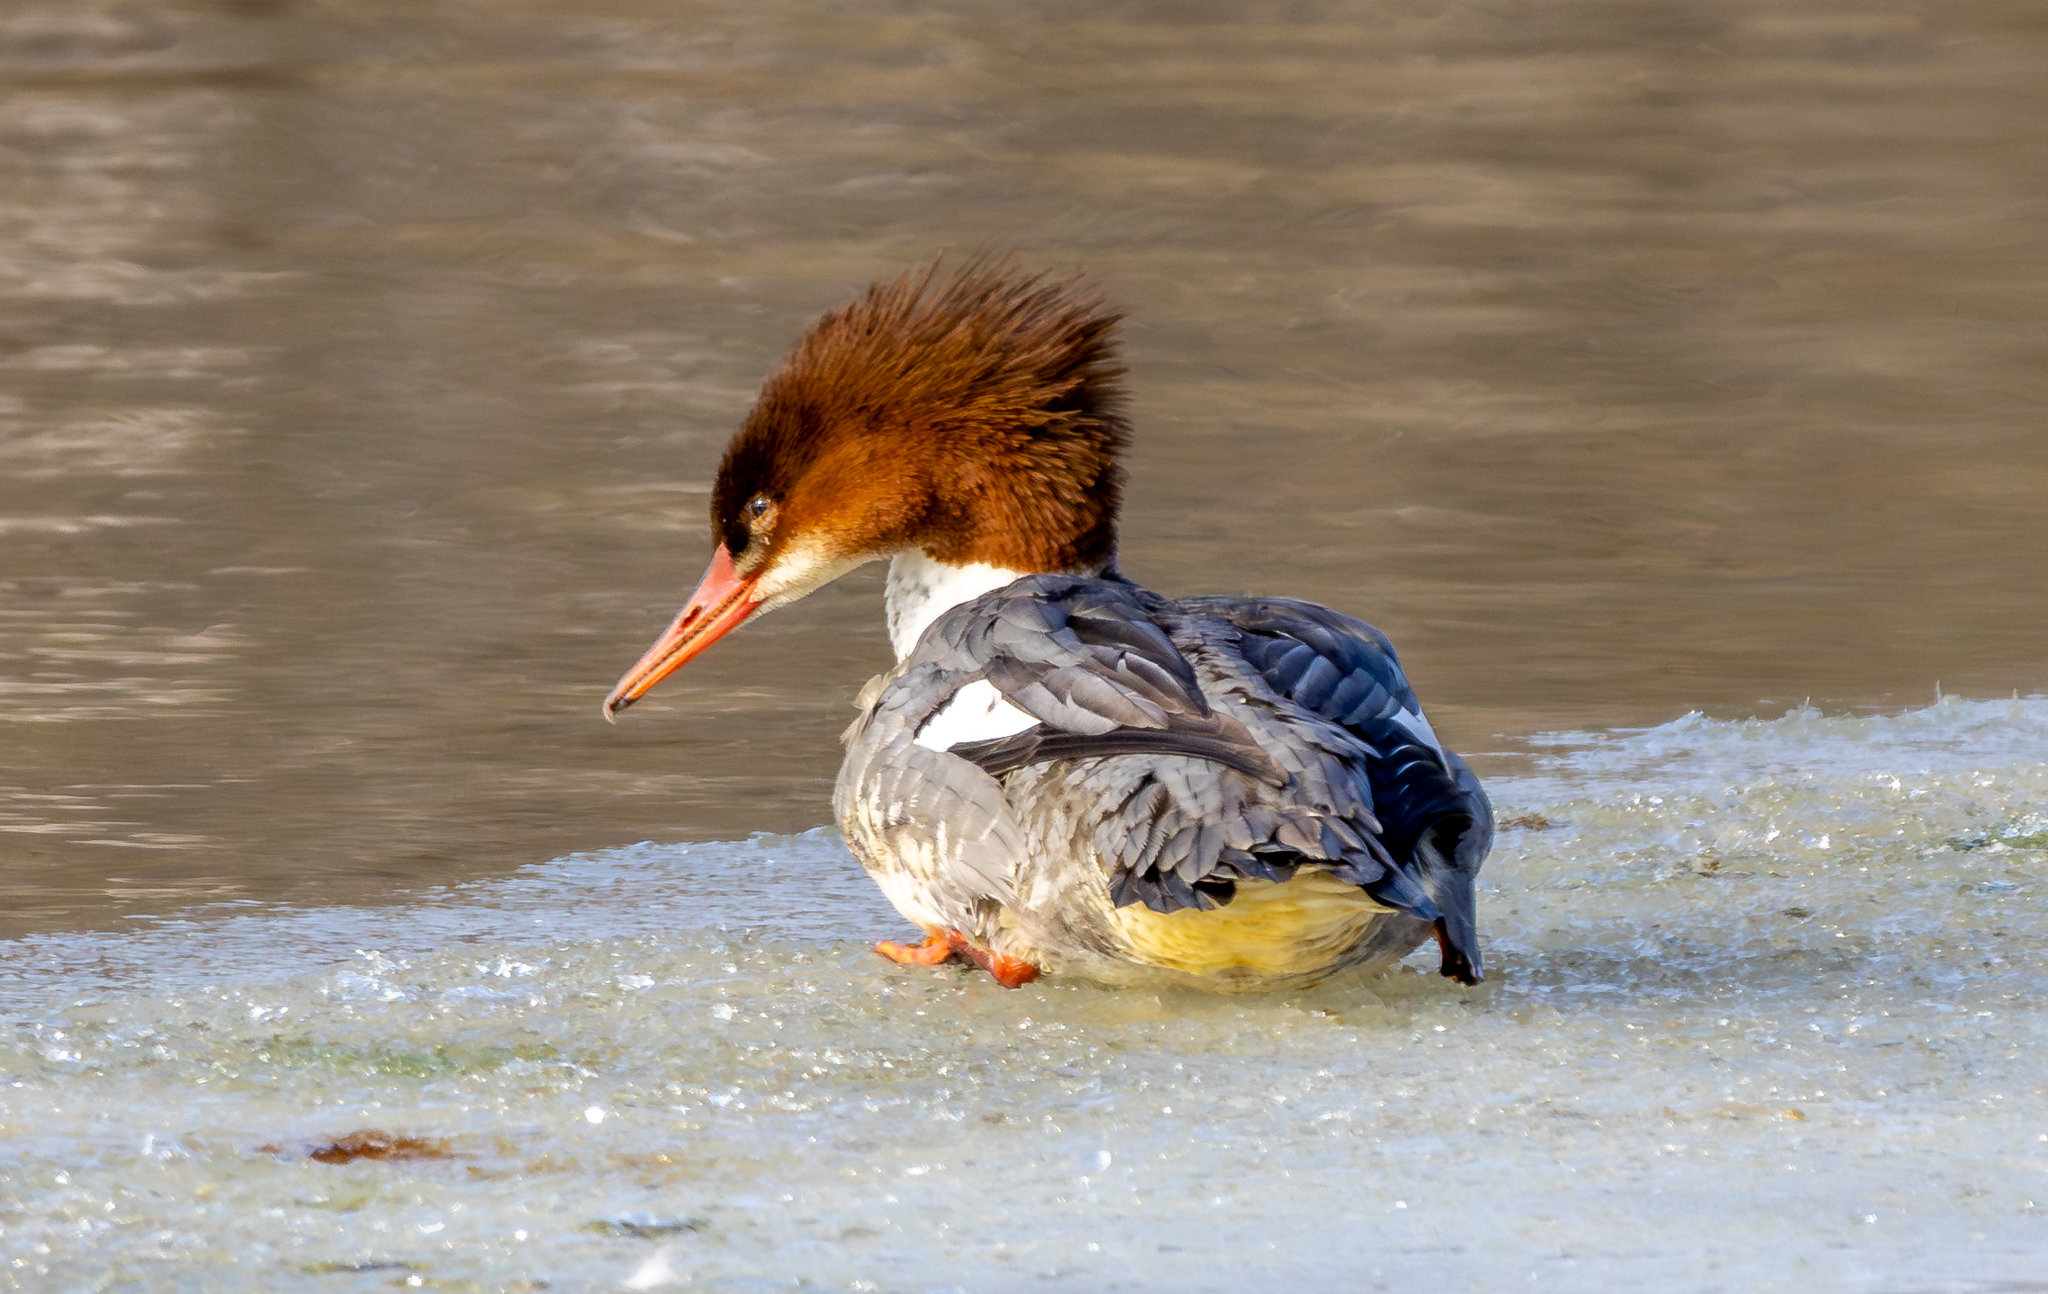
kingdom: Animalia
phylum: Chordata
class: Aves
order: Anseriformes
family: Anatidae
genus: Mergus
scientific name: Mergus merganser
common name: Common merganser
